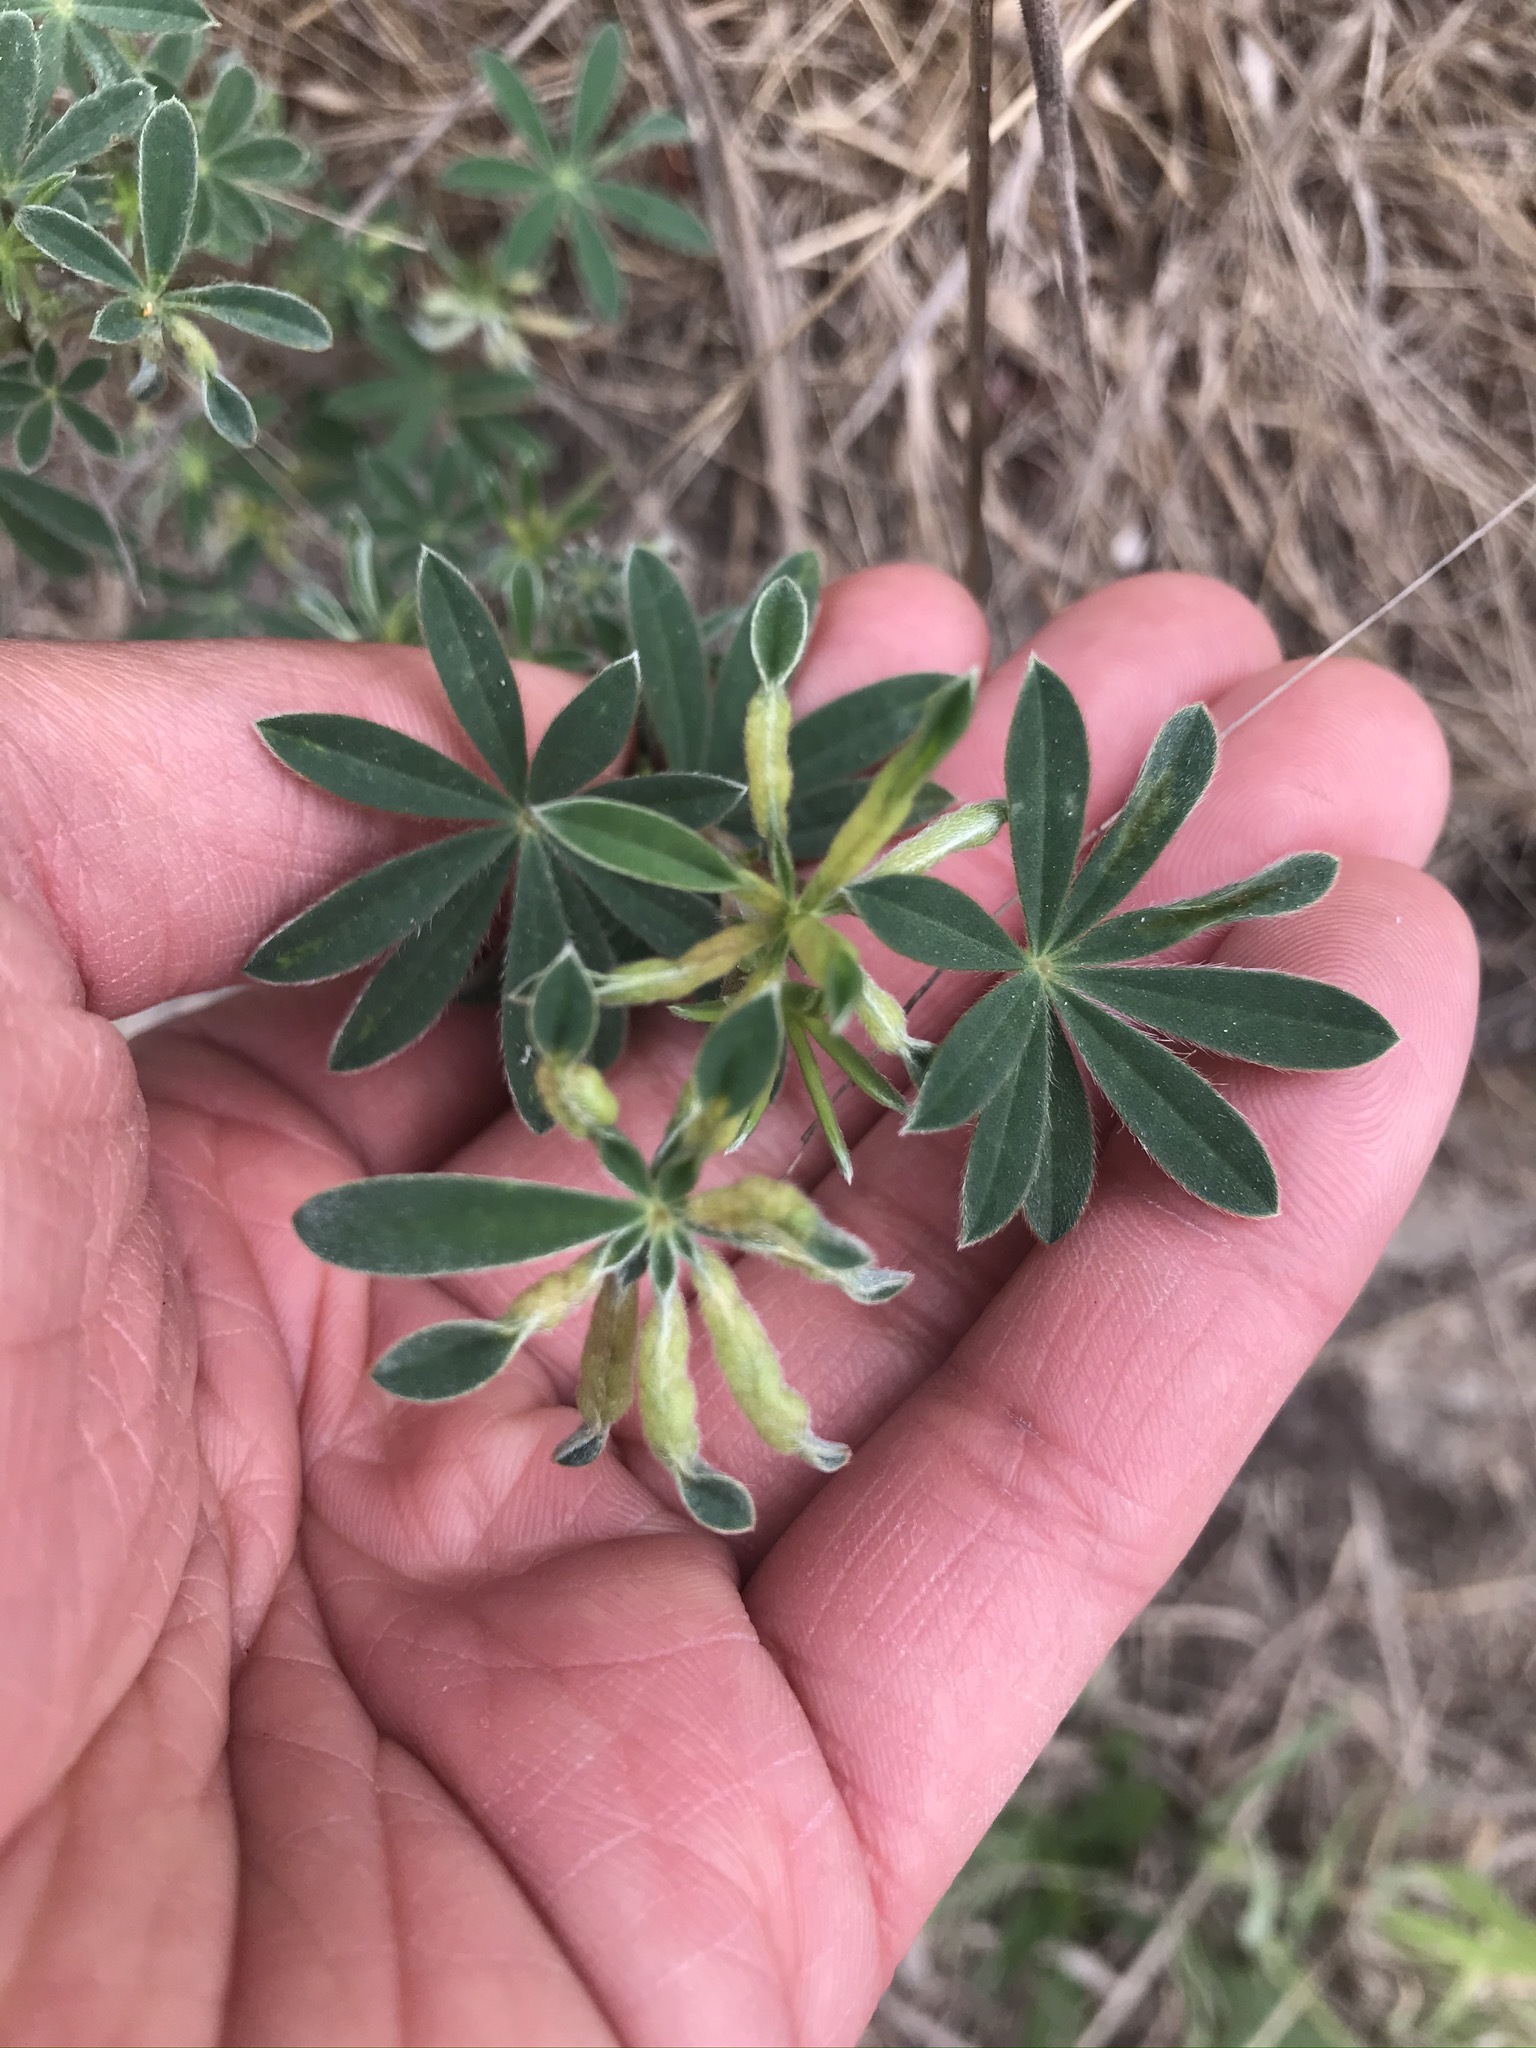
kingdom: Animalia
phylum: Arthropoda
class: Insecta
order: Diptera
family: Cecidomyiidae
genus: Dasineura
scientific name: Dasineura lupinorum
